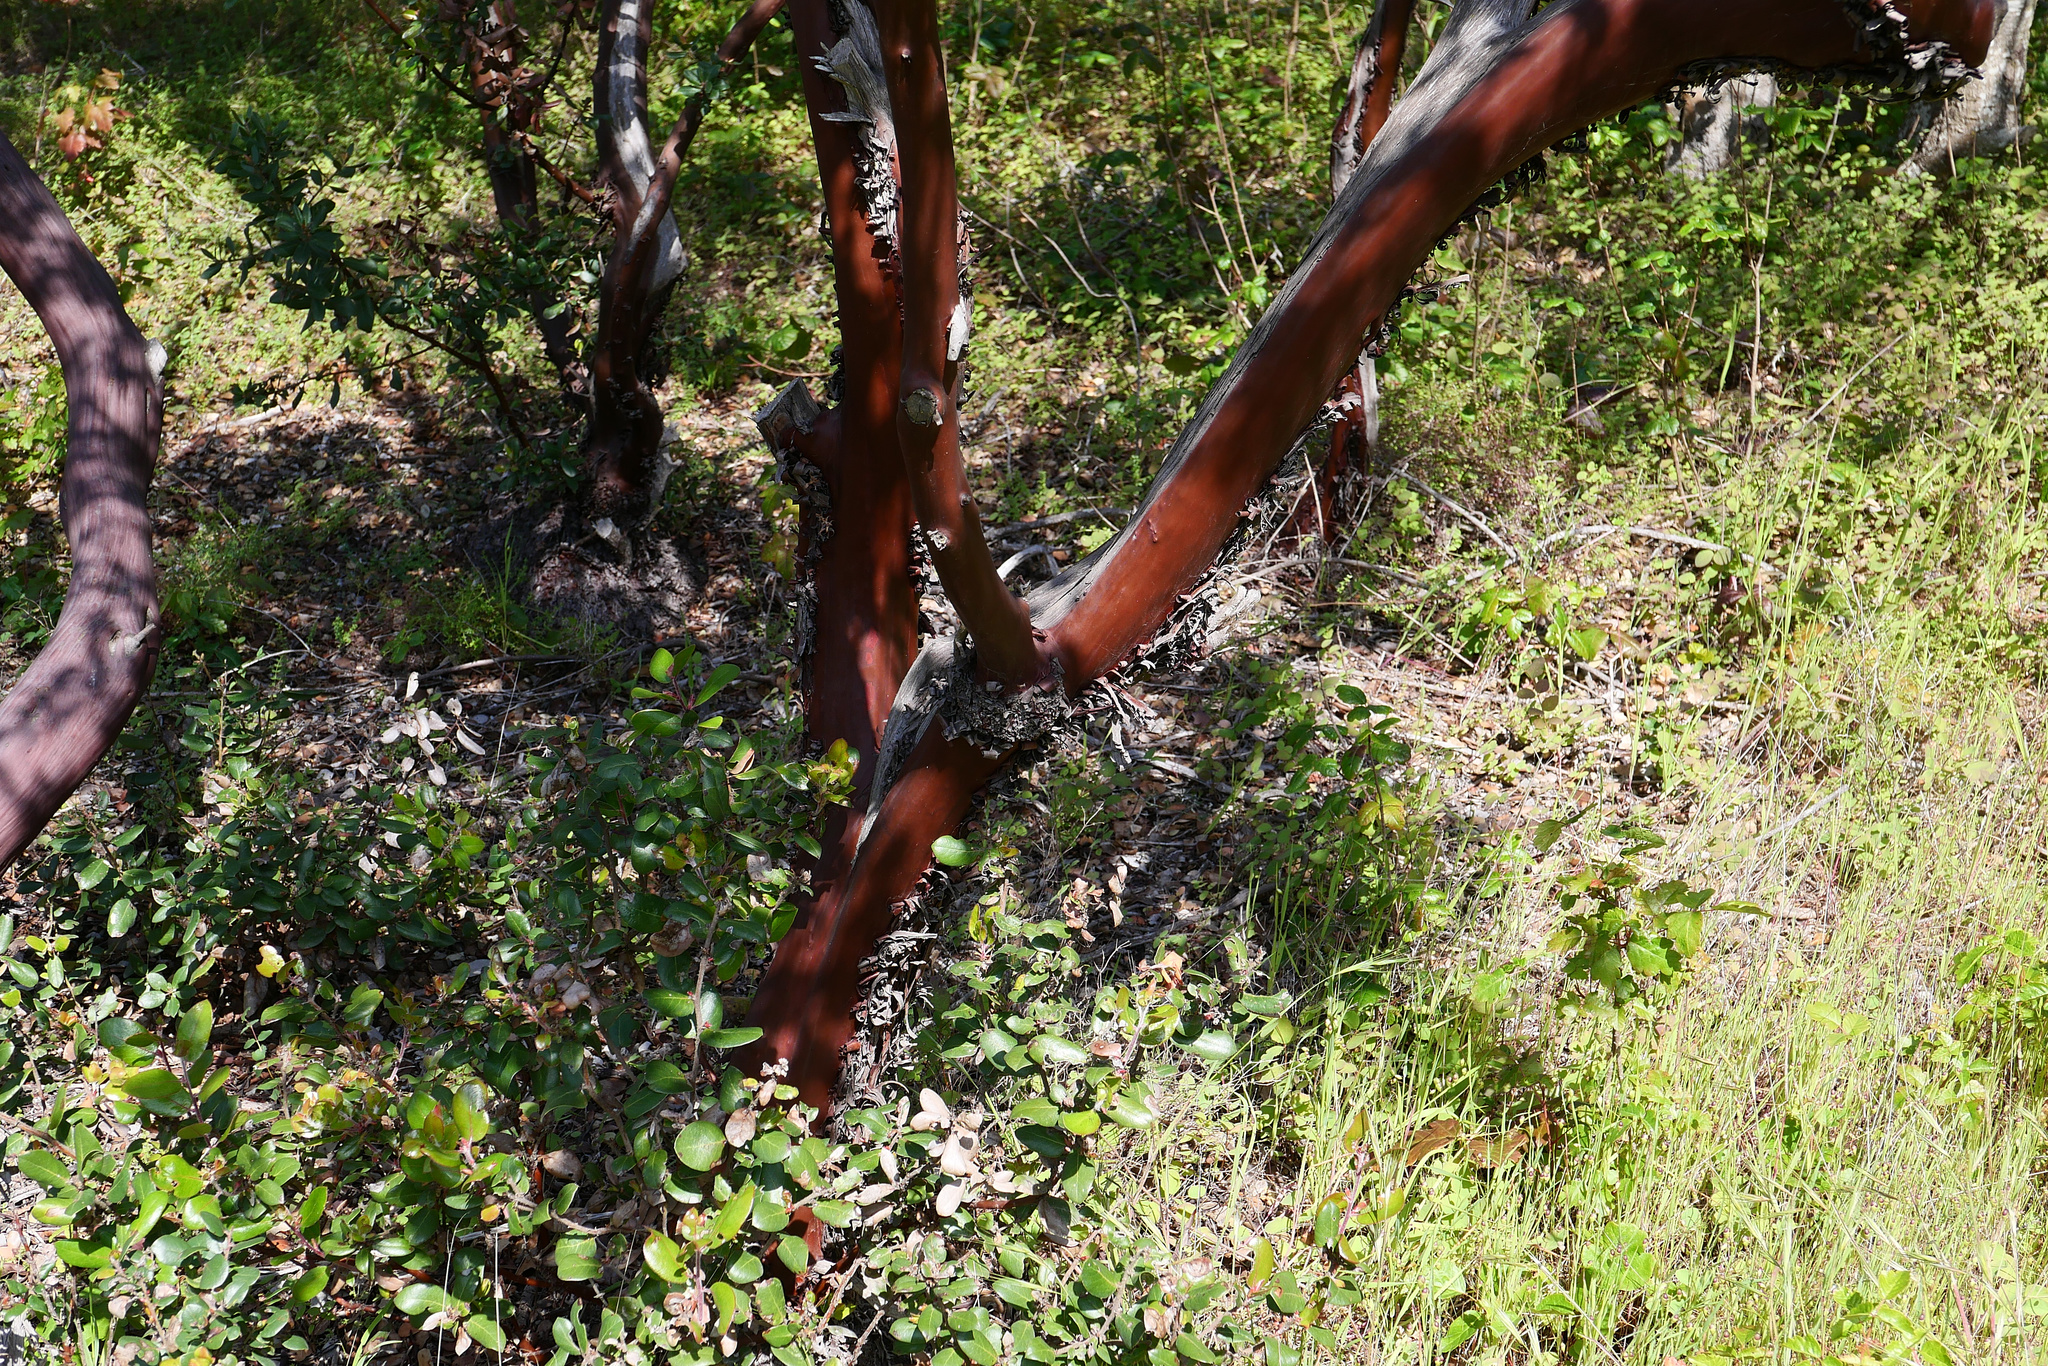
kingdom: Plantae
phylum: Tracheophyta
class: Magnoliopsida
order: Ericales
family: Ericaceae
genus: Arctostaphylos
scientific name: Arctostaphylos montereyensis
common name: Monterey manzanita
